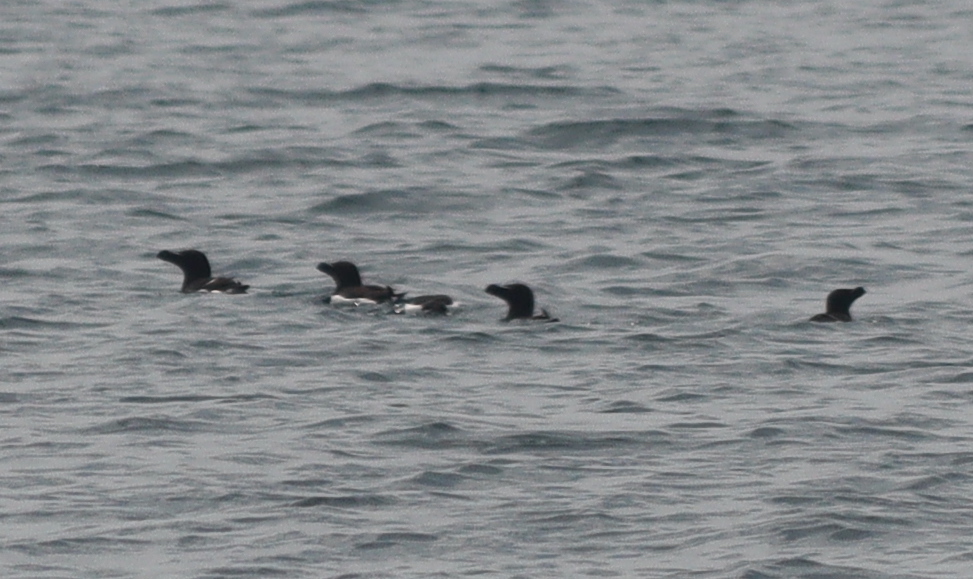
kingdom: Animalia
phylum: Chordata
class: Aves
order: Charadriiformes
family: Alcidae
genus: Alca
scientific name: Alca torda
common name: Razorbill
